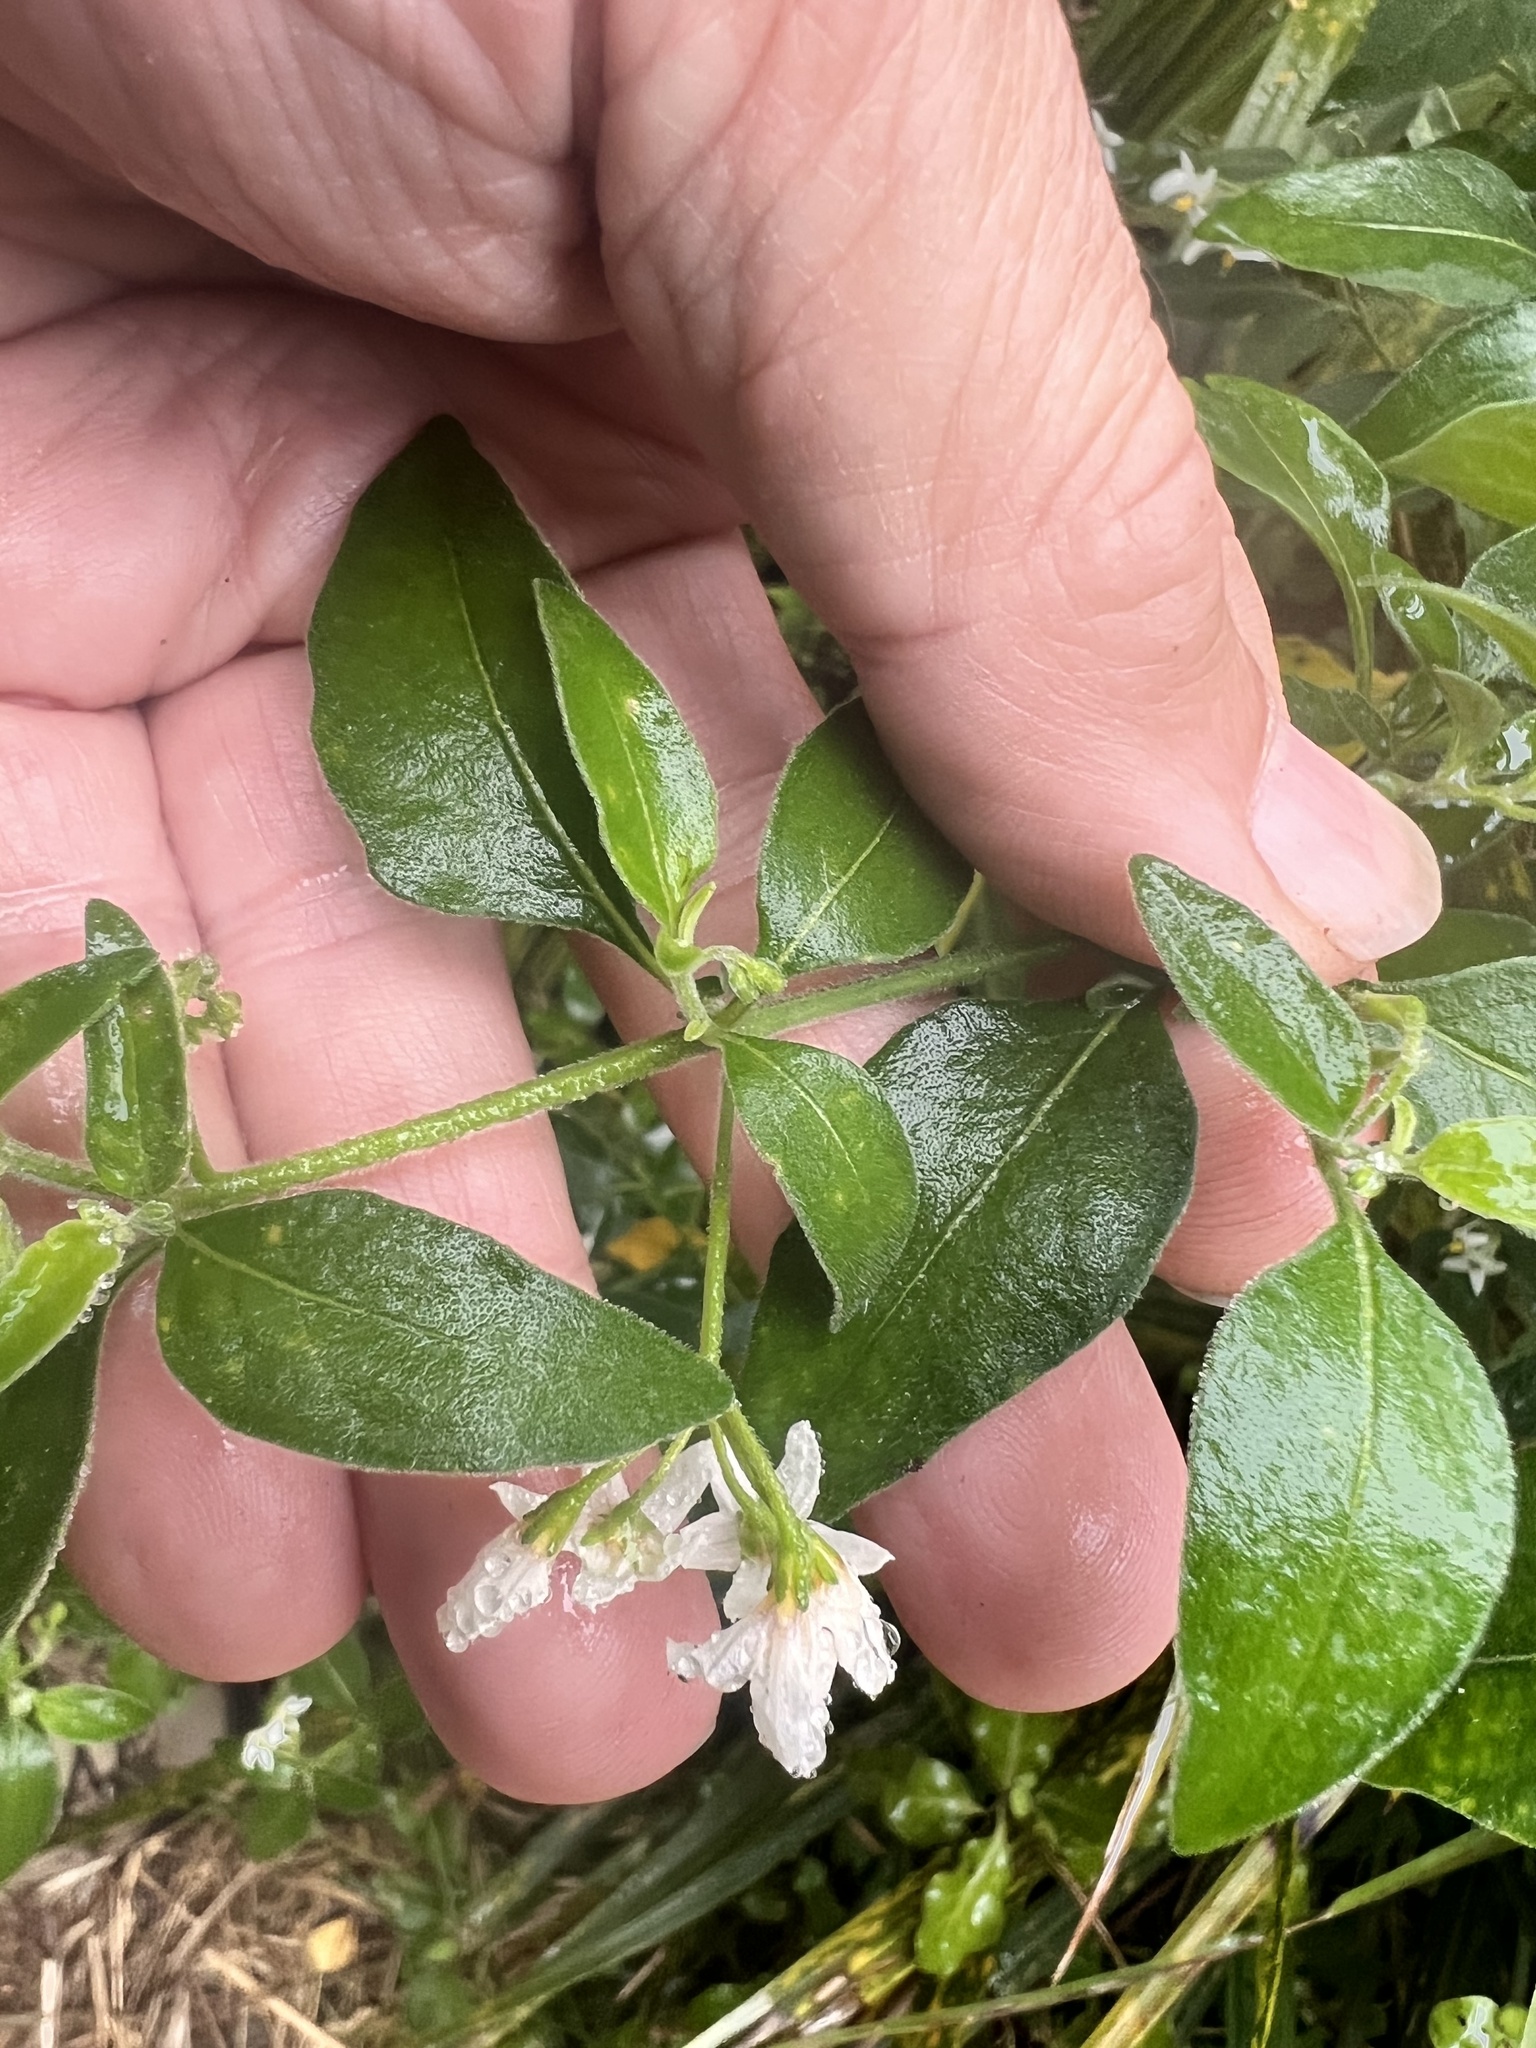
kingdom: Plantae
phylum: Tracheophyta
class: Magnoliopsida
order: Solanales
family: Solanaceae
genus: Solanum
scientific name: Solanum chenopodioides
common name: Tall nightshade
